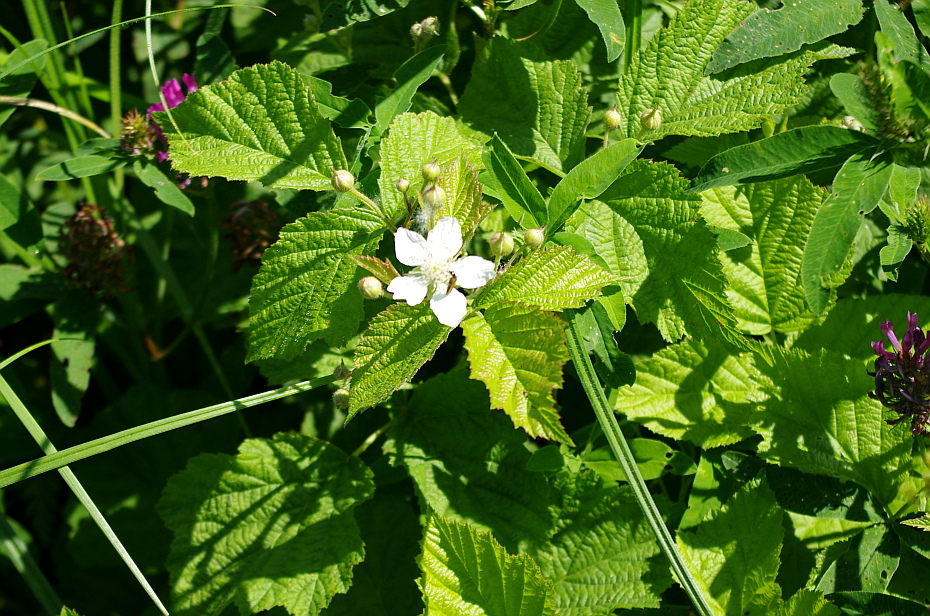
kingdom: Plantae
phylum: Tracheophyta
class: Magnoliopsida
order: Rosales
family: Rosaceae
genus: Rubus
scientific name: Rubus caesius
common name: Dewberry
